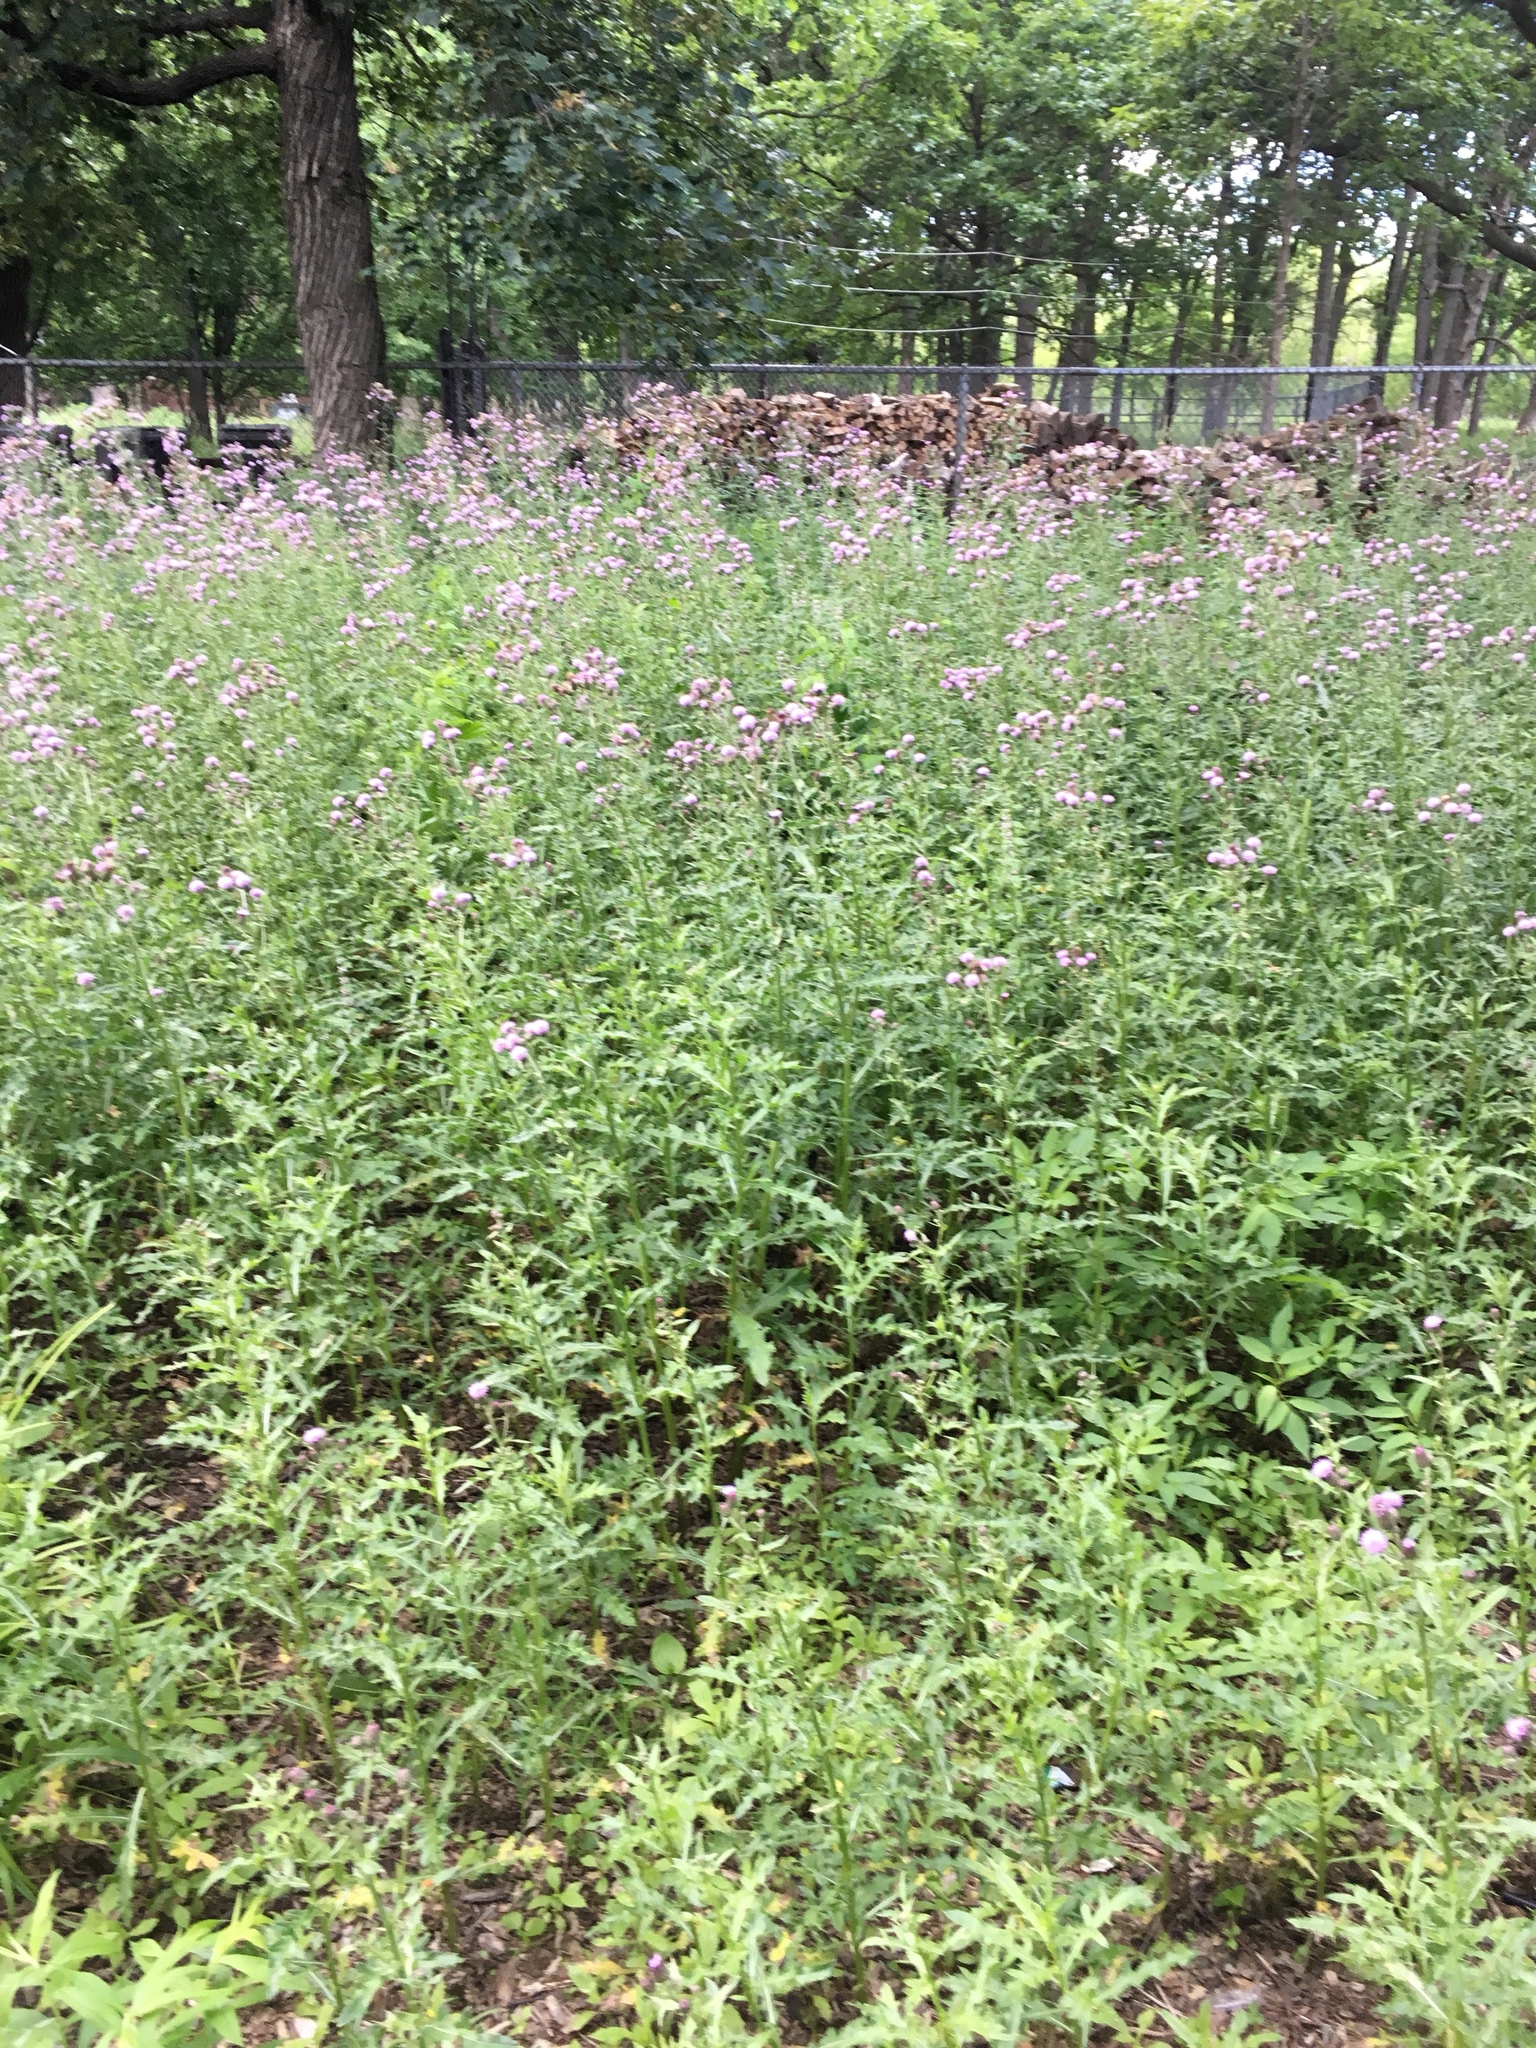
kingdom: Plantae
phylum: Tracheophyta
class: Magnoliopsida
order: Asterales
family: Asteraceae
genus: Cirsium
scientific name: Cirsium arvense
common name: Creeping thistle
